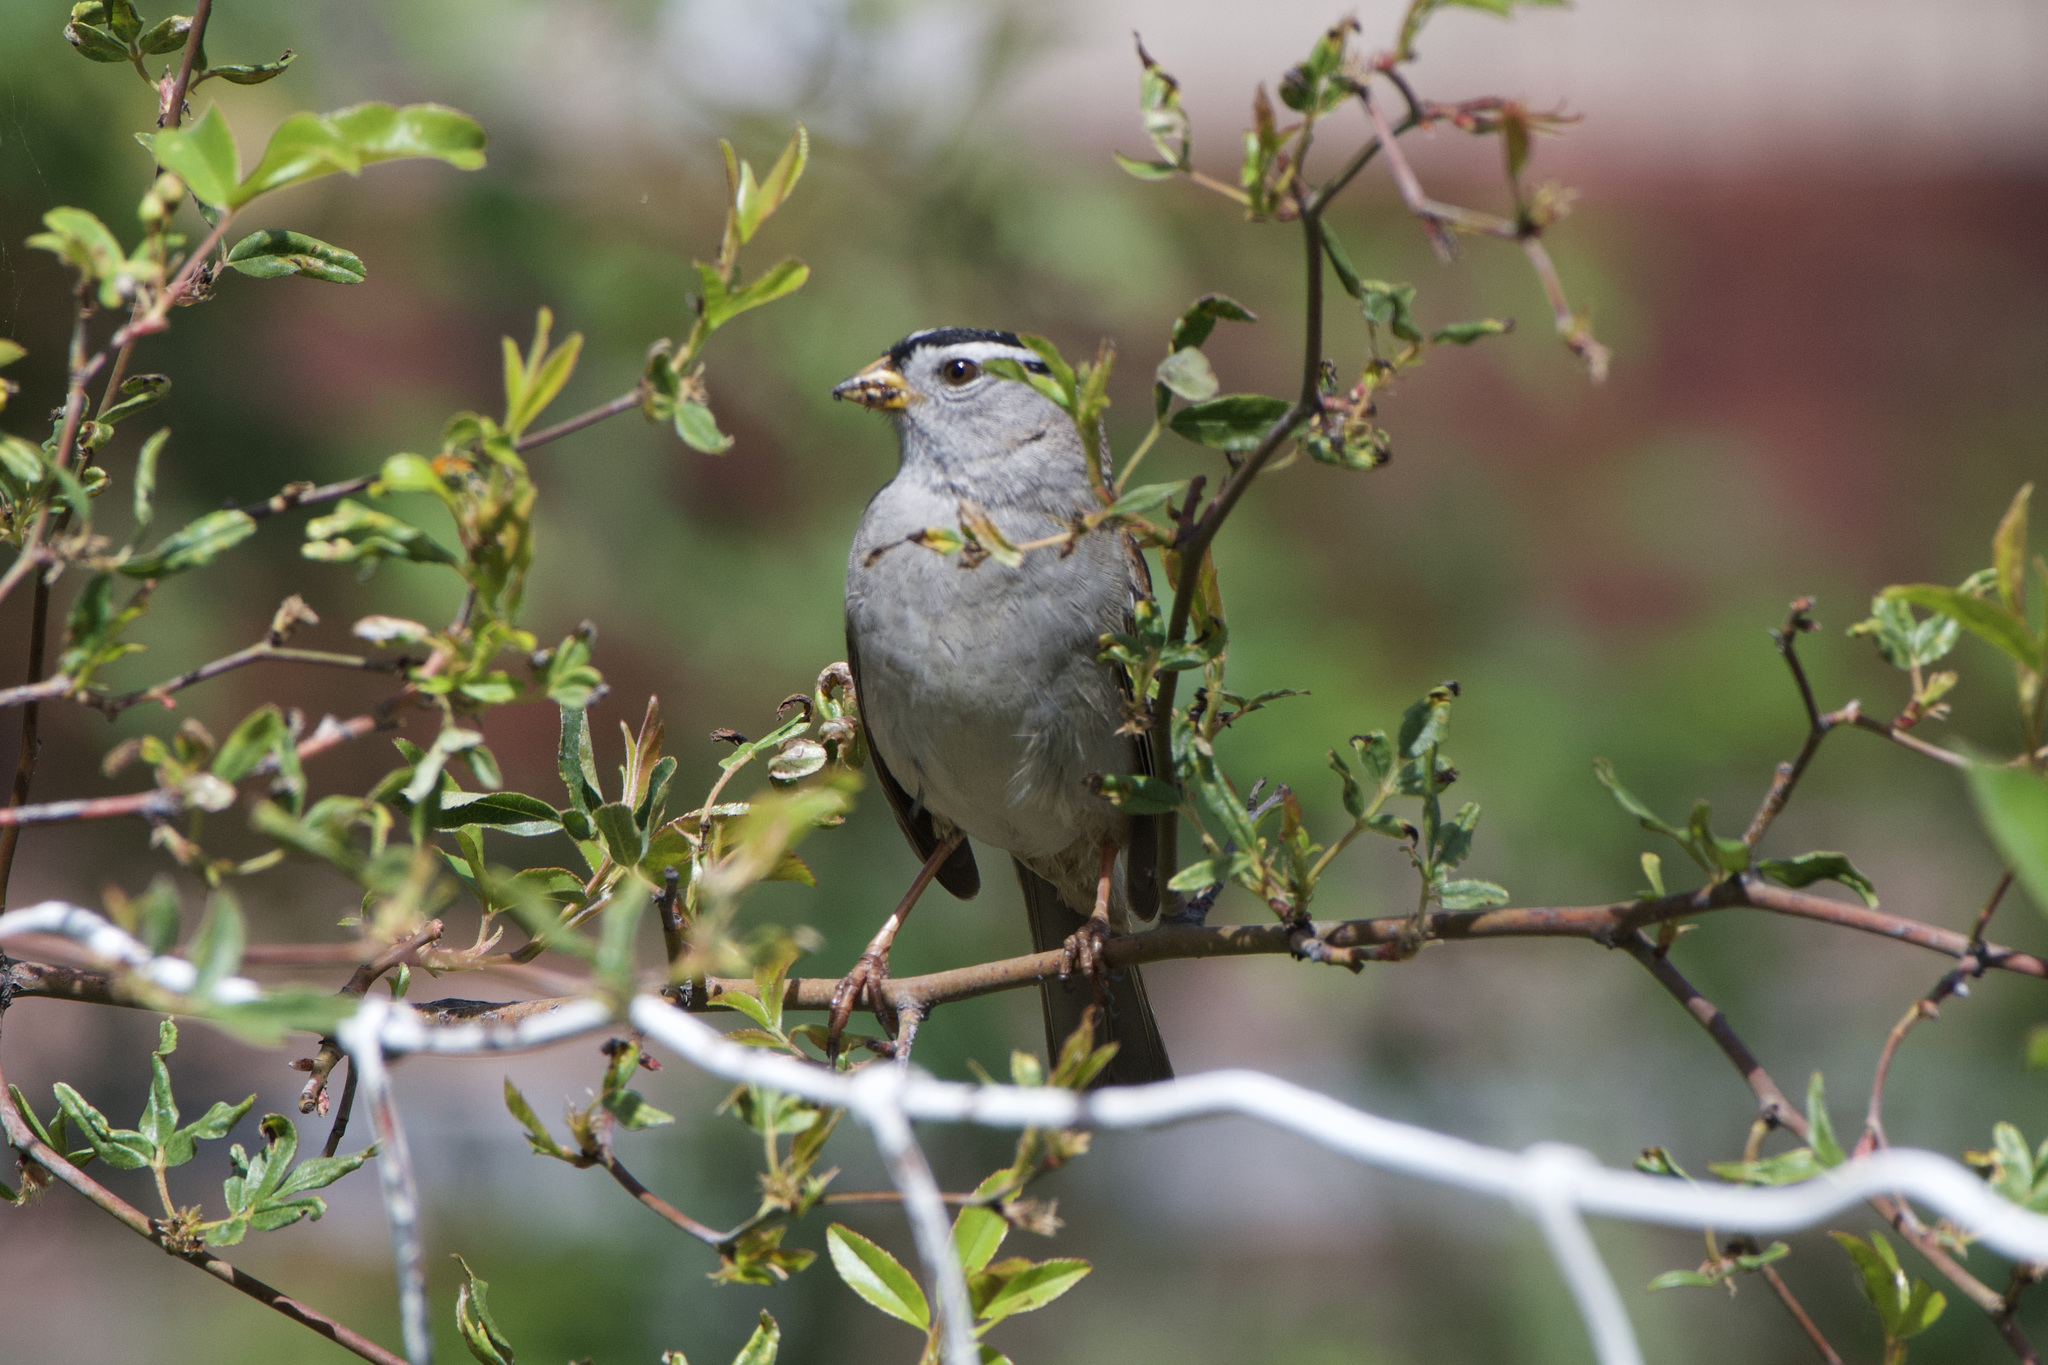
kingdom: Animalia
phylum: Chordata
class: Aves
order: Passeriformes
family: Passerellidae
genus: Zonotrichia
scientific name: Zonotrichia leucophrys
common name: White-crowned sparrow
